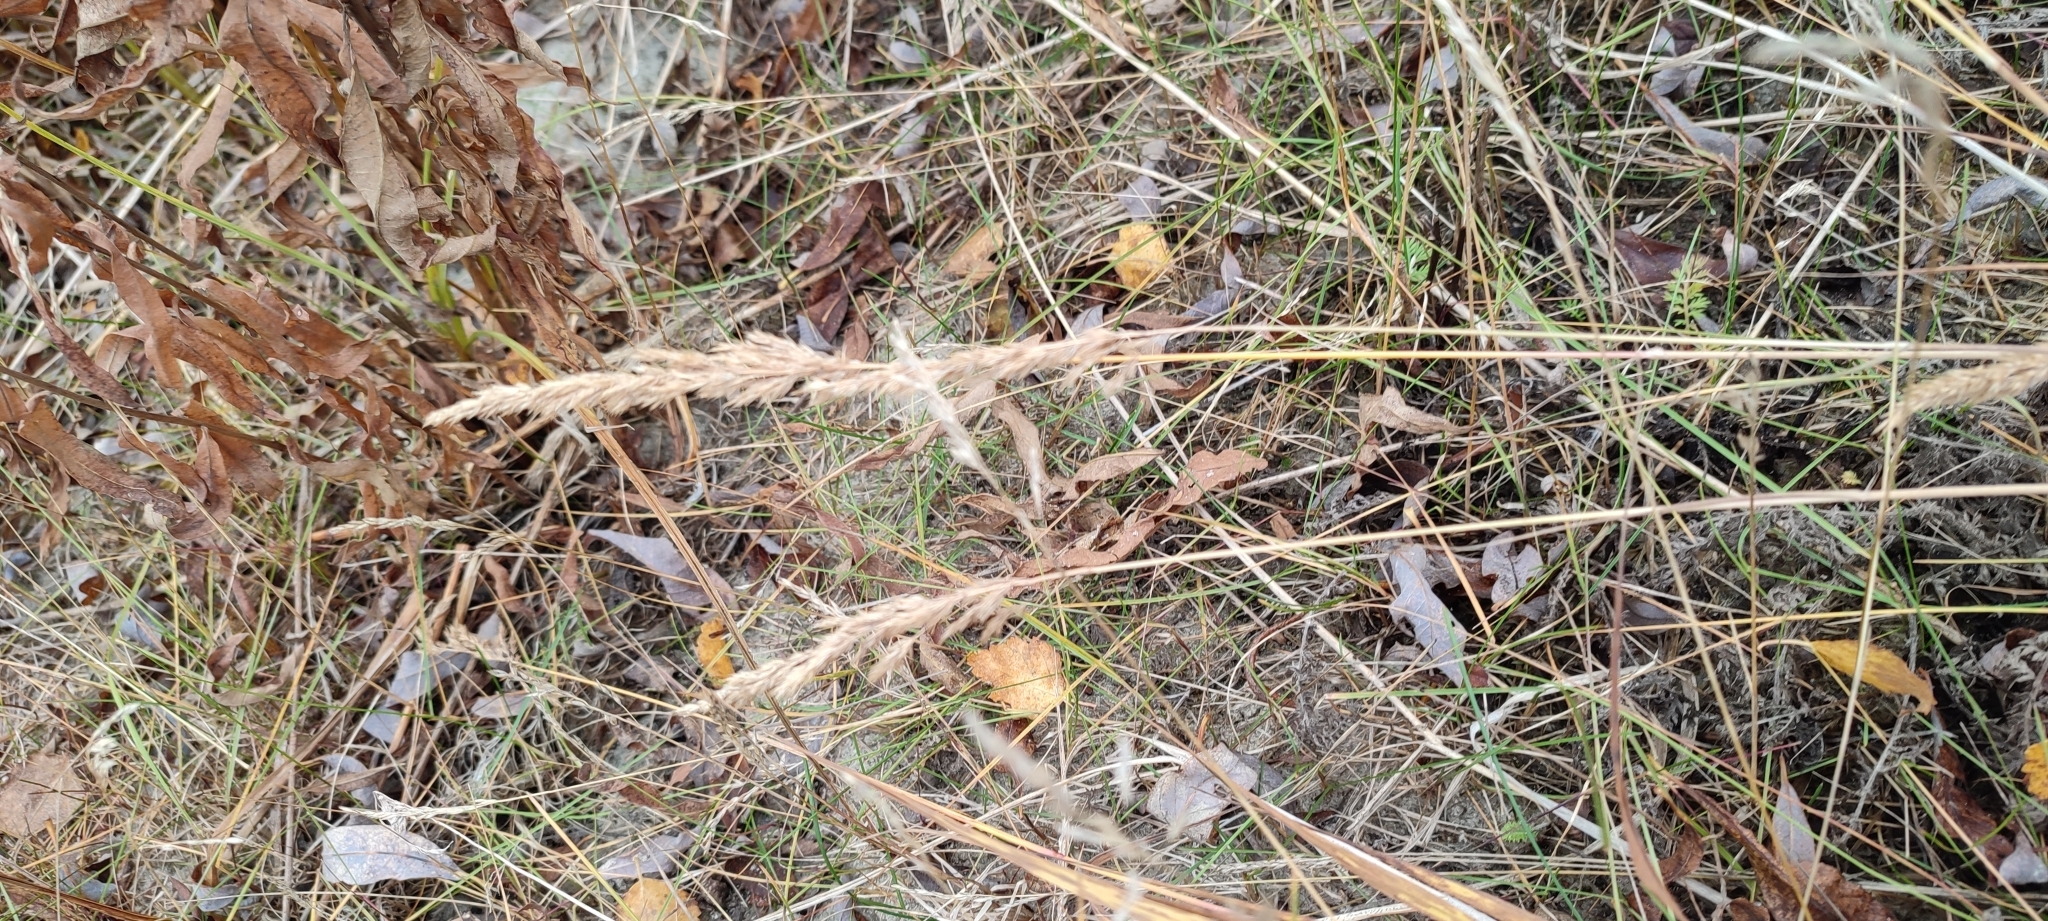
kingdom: Plantae
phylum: Tracheophyta
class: Liliopsida
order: Poales
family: Poaceae
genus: Calamagrostis
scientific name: Calamagrostis purpurea
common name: Scandinavian small-reed
